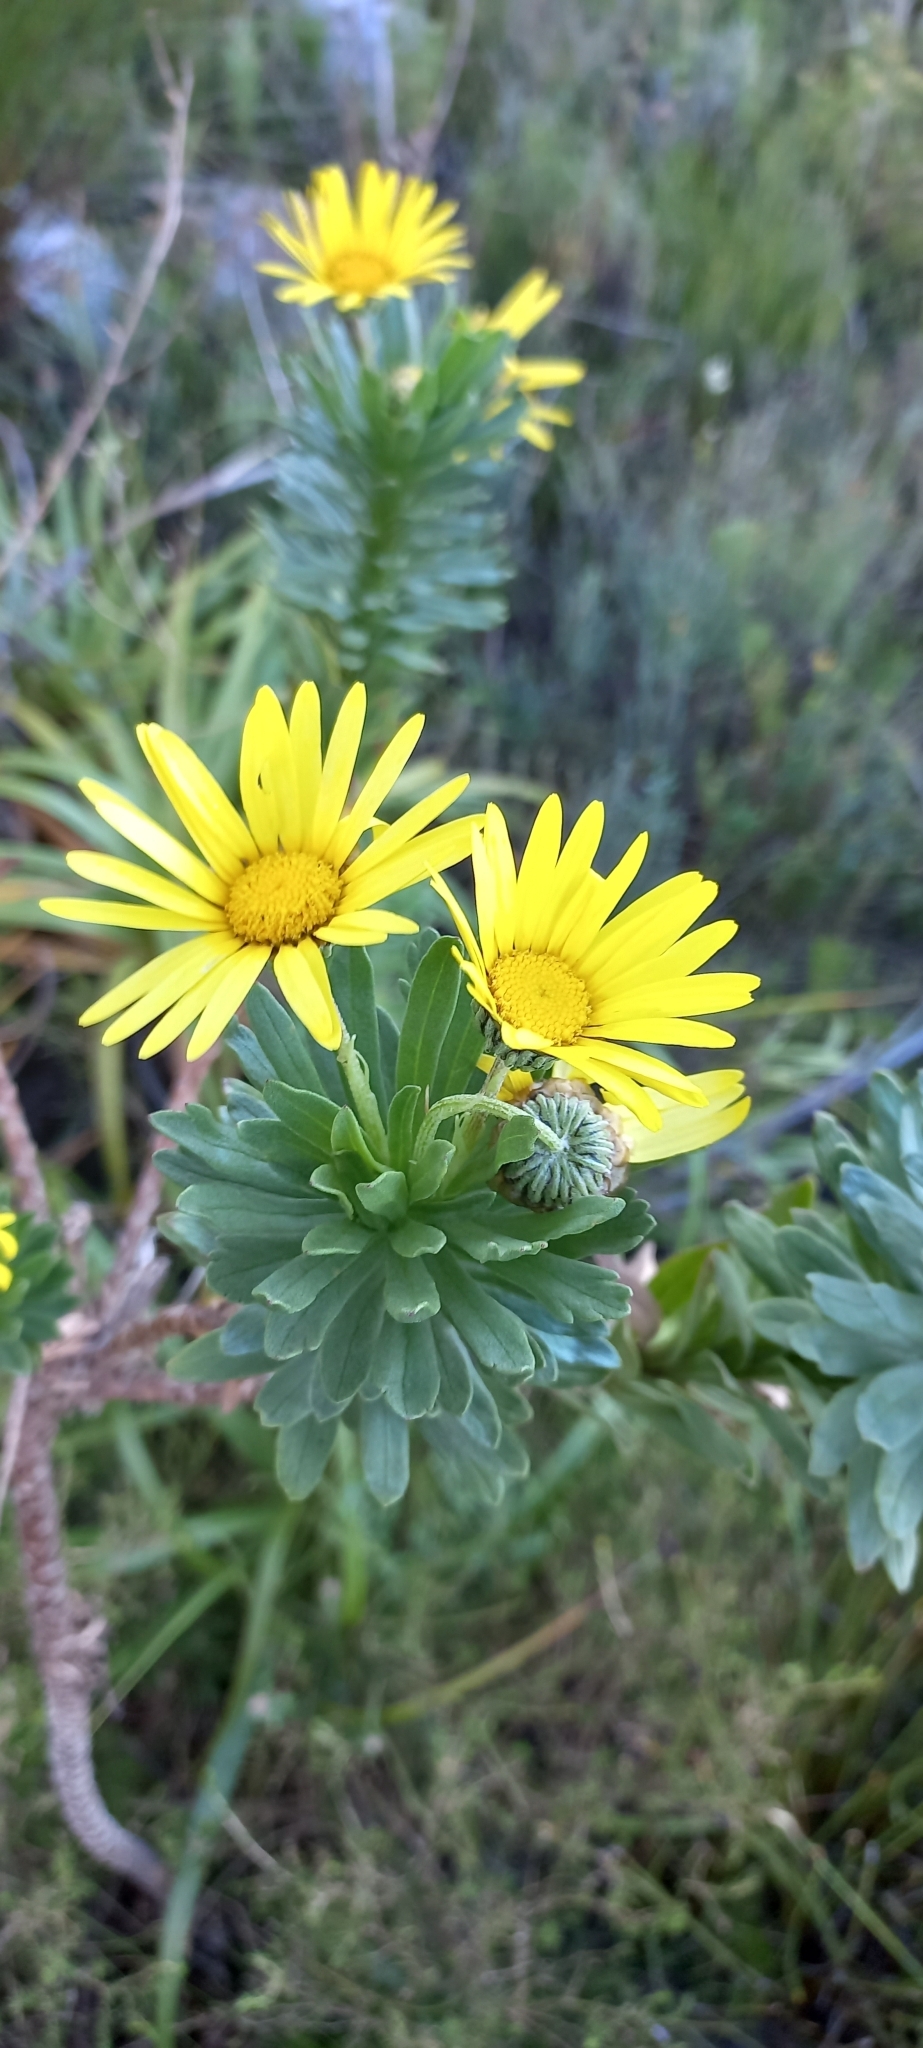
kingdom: Plantae
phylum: Tracheophyta
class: Magnoliopsida
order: Asterales
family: Asteraceae
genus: Ursinia
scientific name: Ursinia eckloniana
